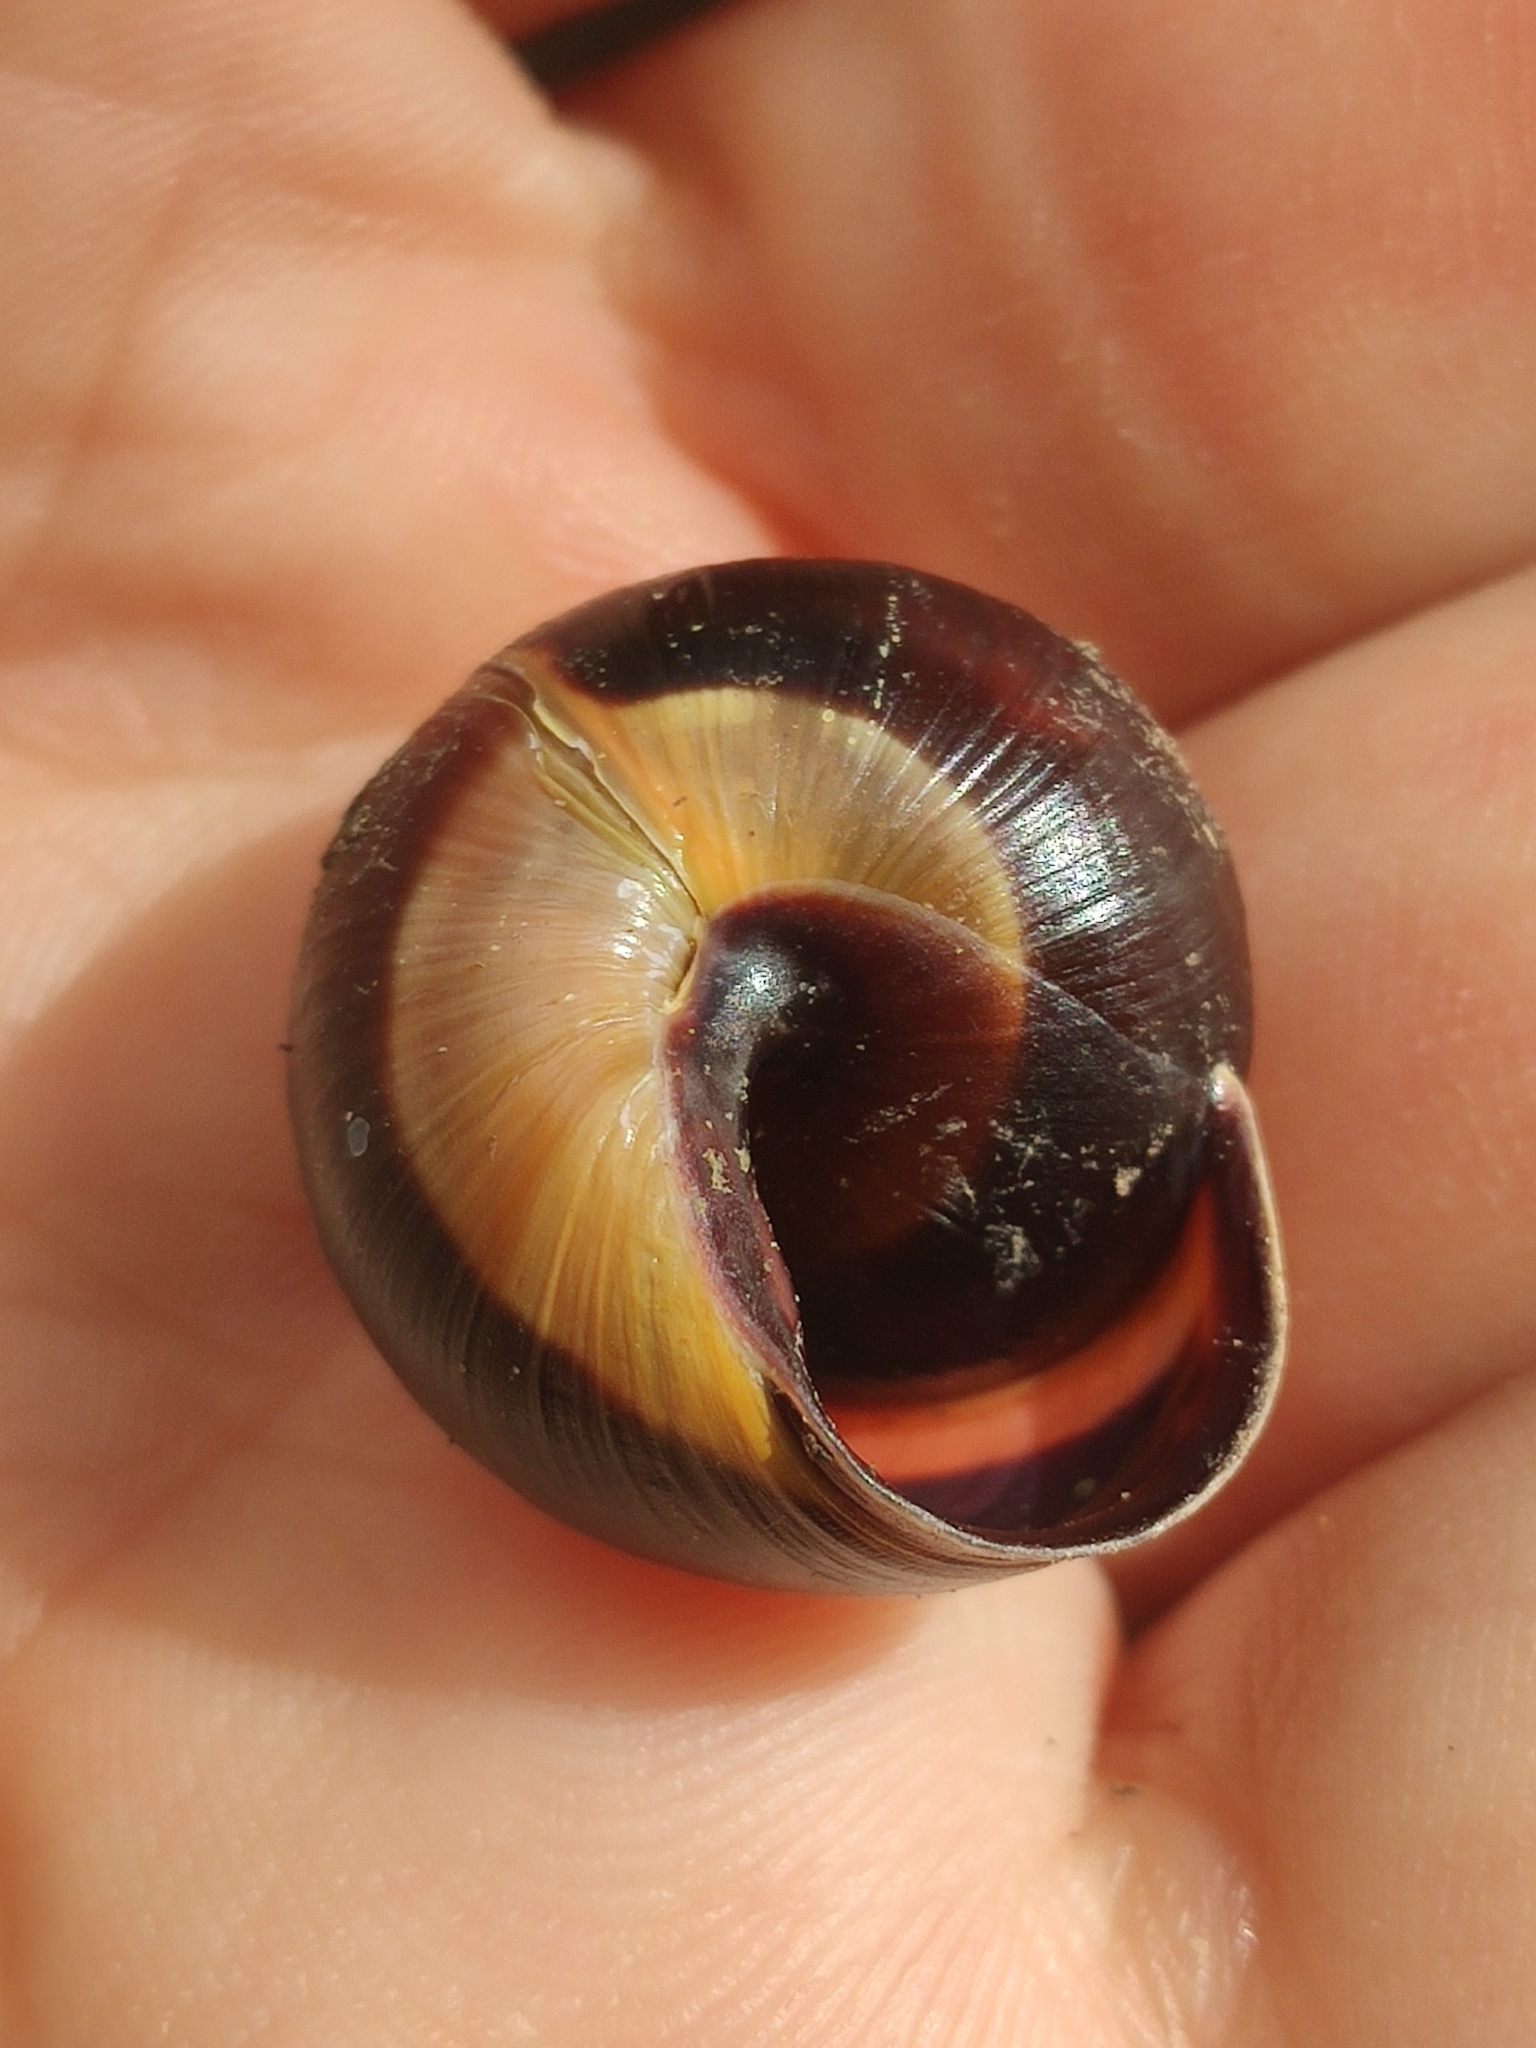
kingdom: Animalia
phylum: Mollusca
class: Gastropoda
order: Stylommatophora
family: Helicidae
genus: Cepaea
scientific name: Cepaea nemoralis
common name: Grovesnail
